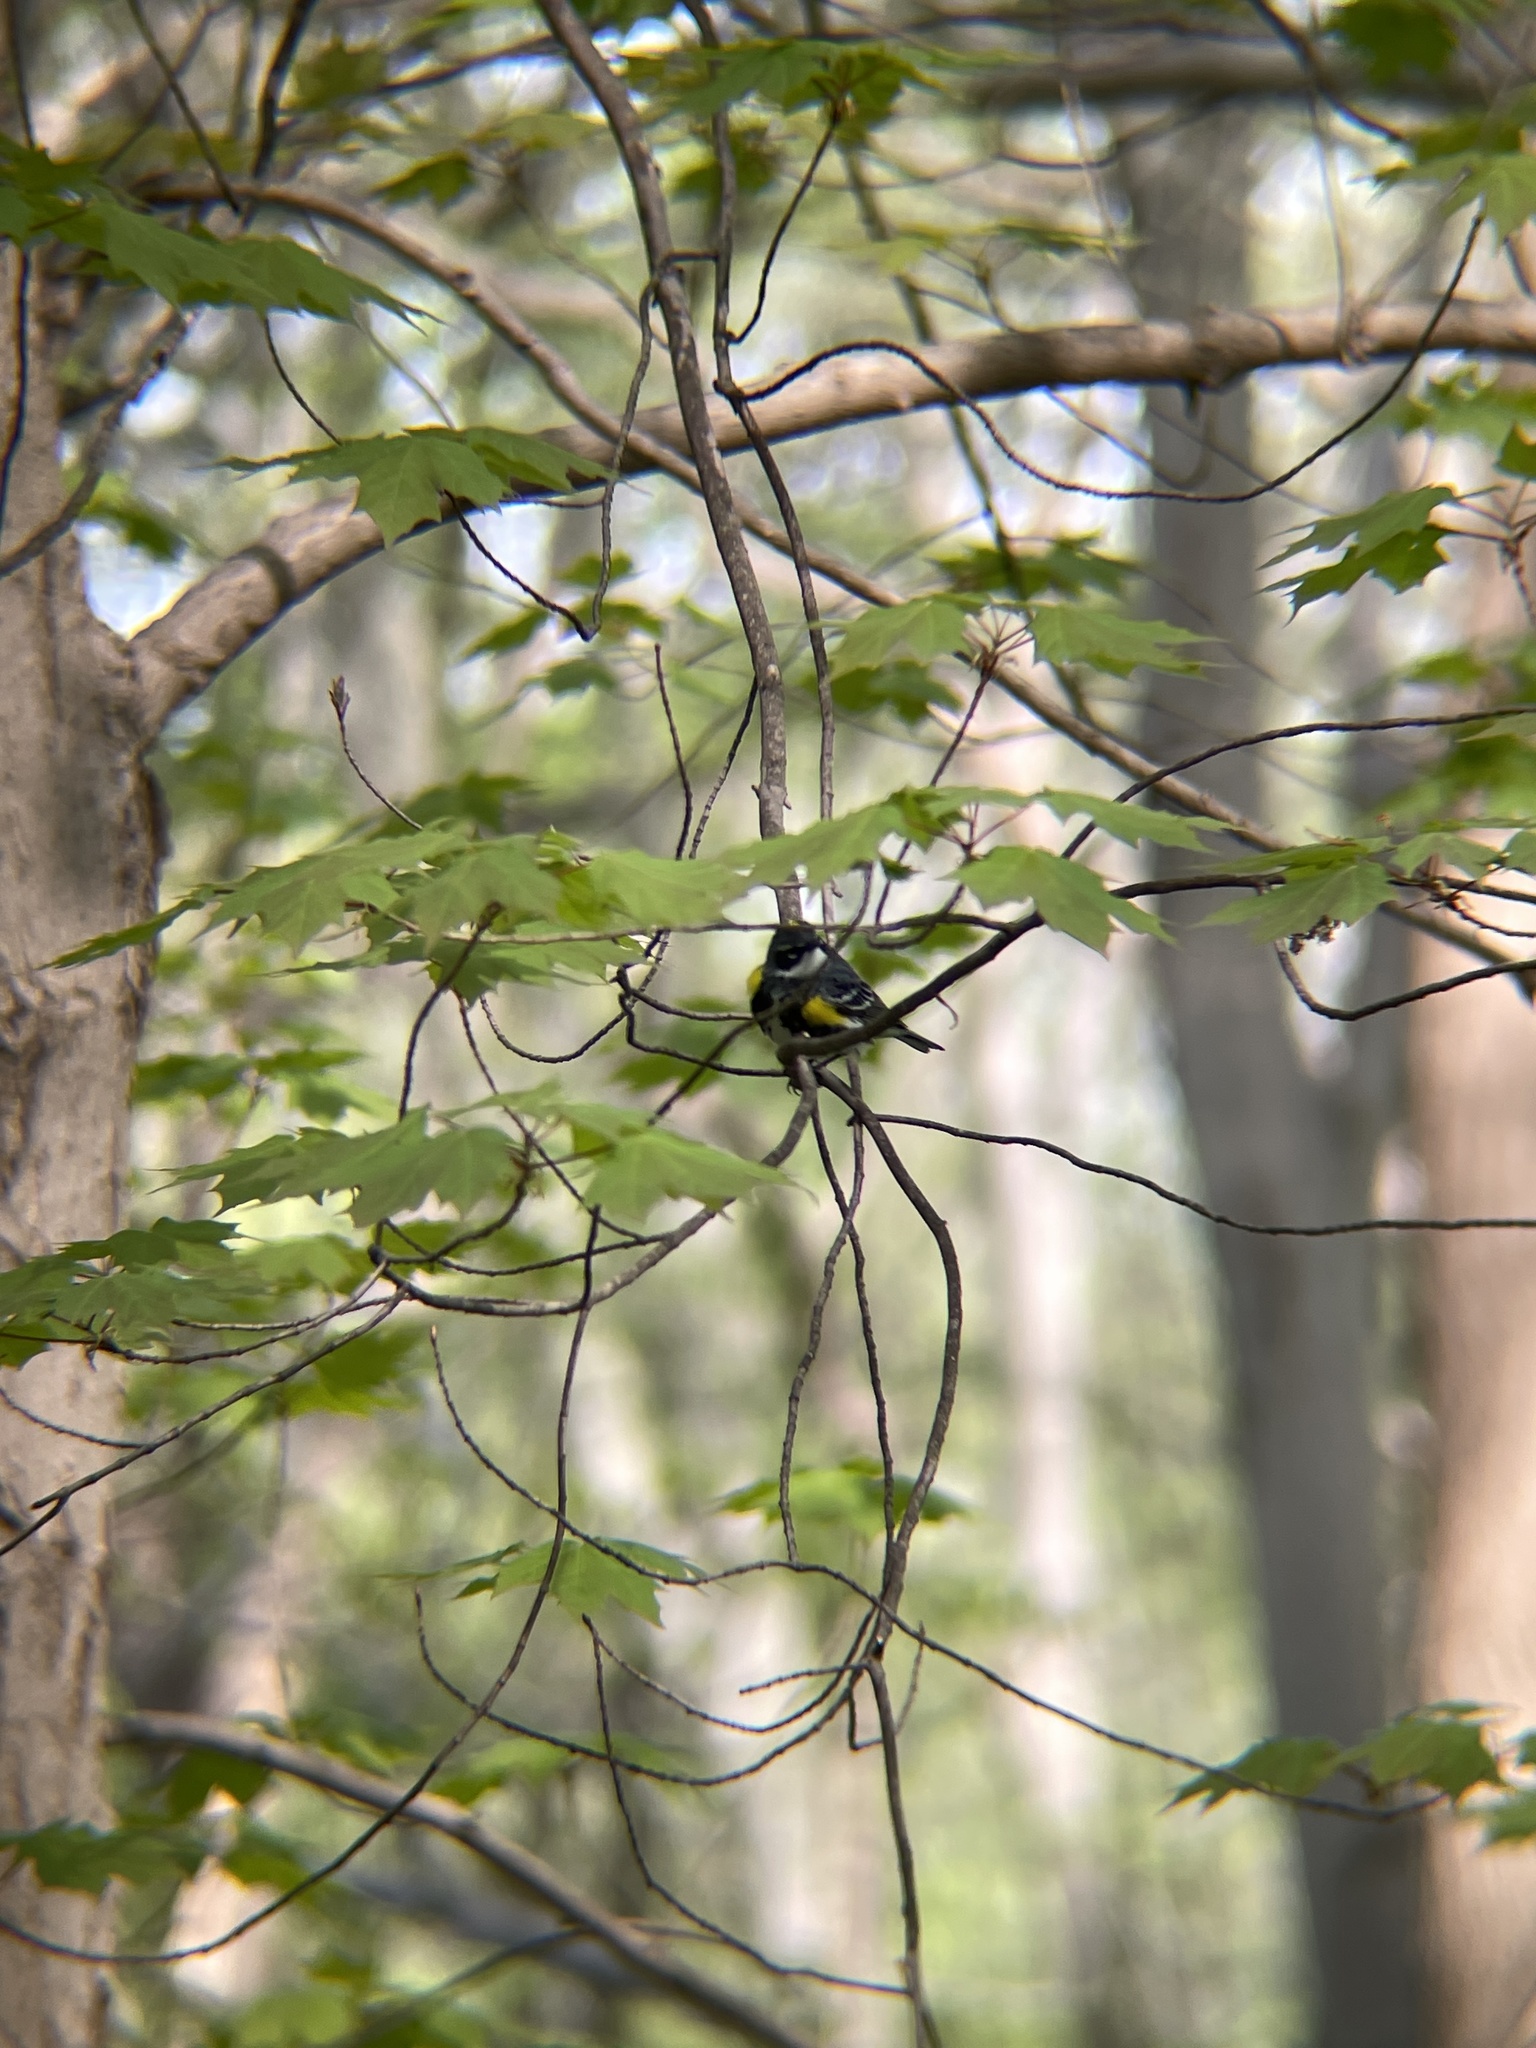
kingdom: Animalia
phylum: Chordata
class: Aves
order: Passeriformes
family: Parulidae
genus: Setophaga
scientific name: Setophaga coronata
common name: Myrtle warbler
